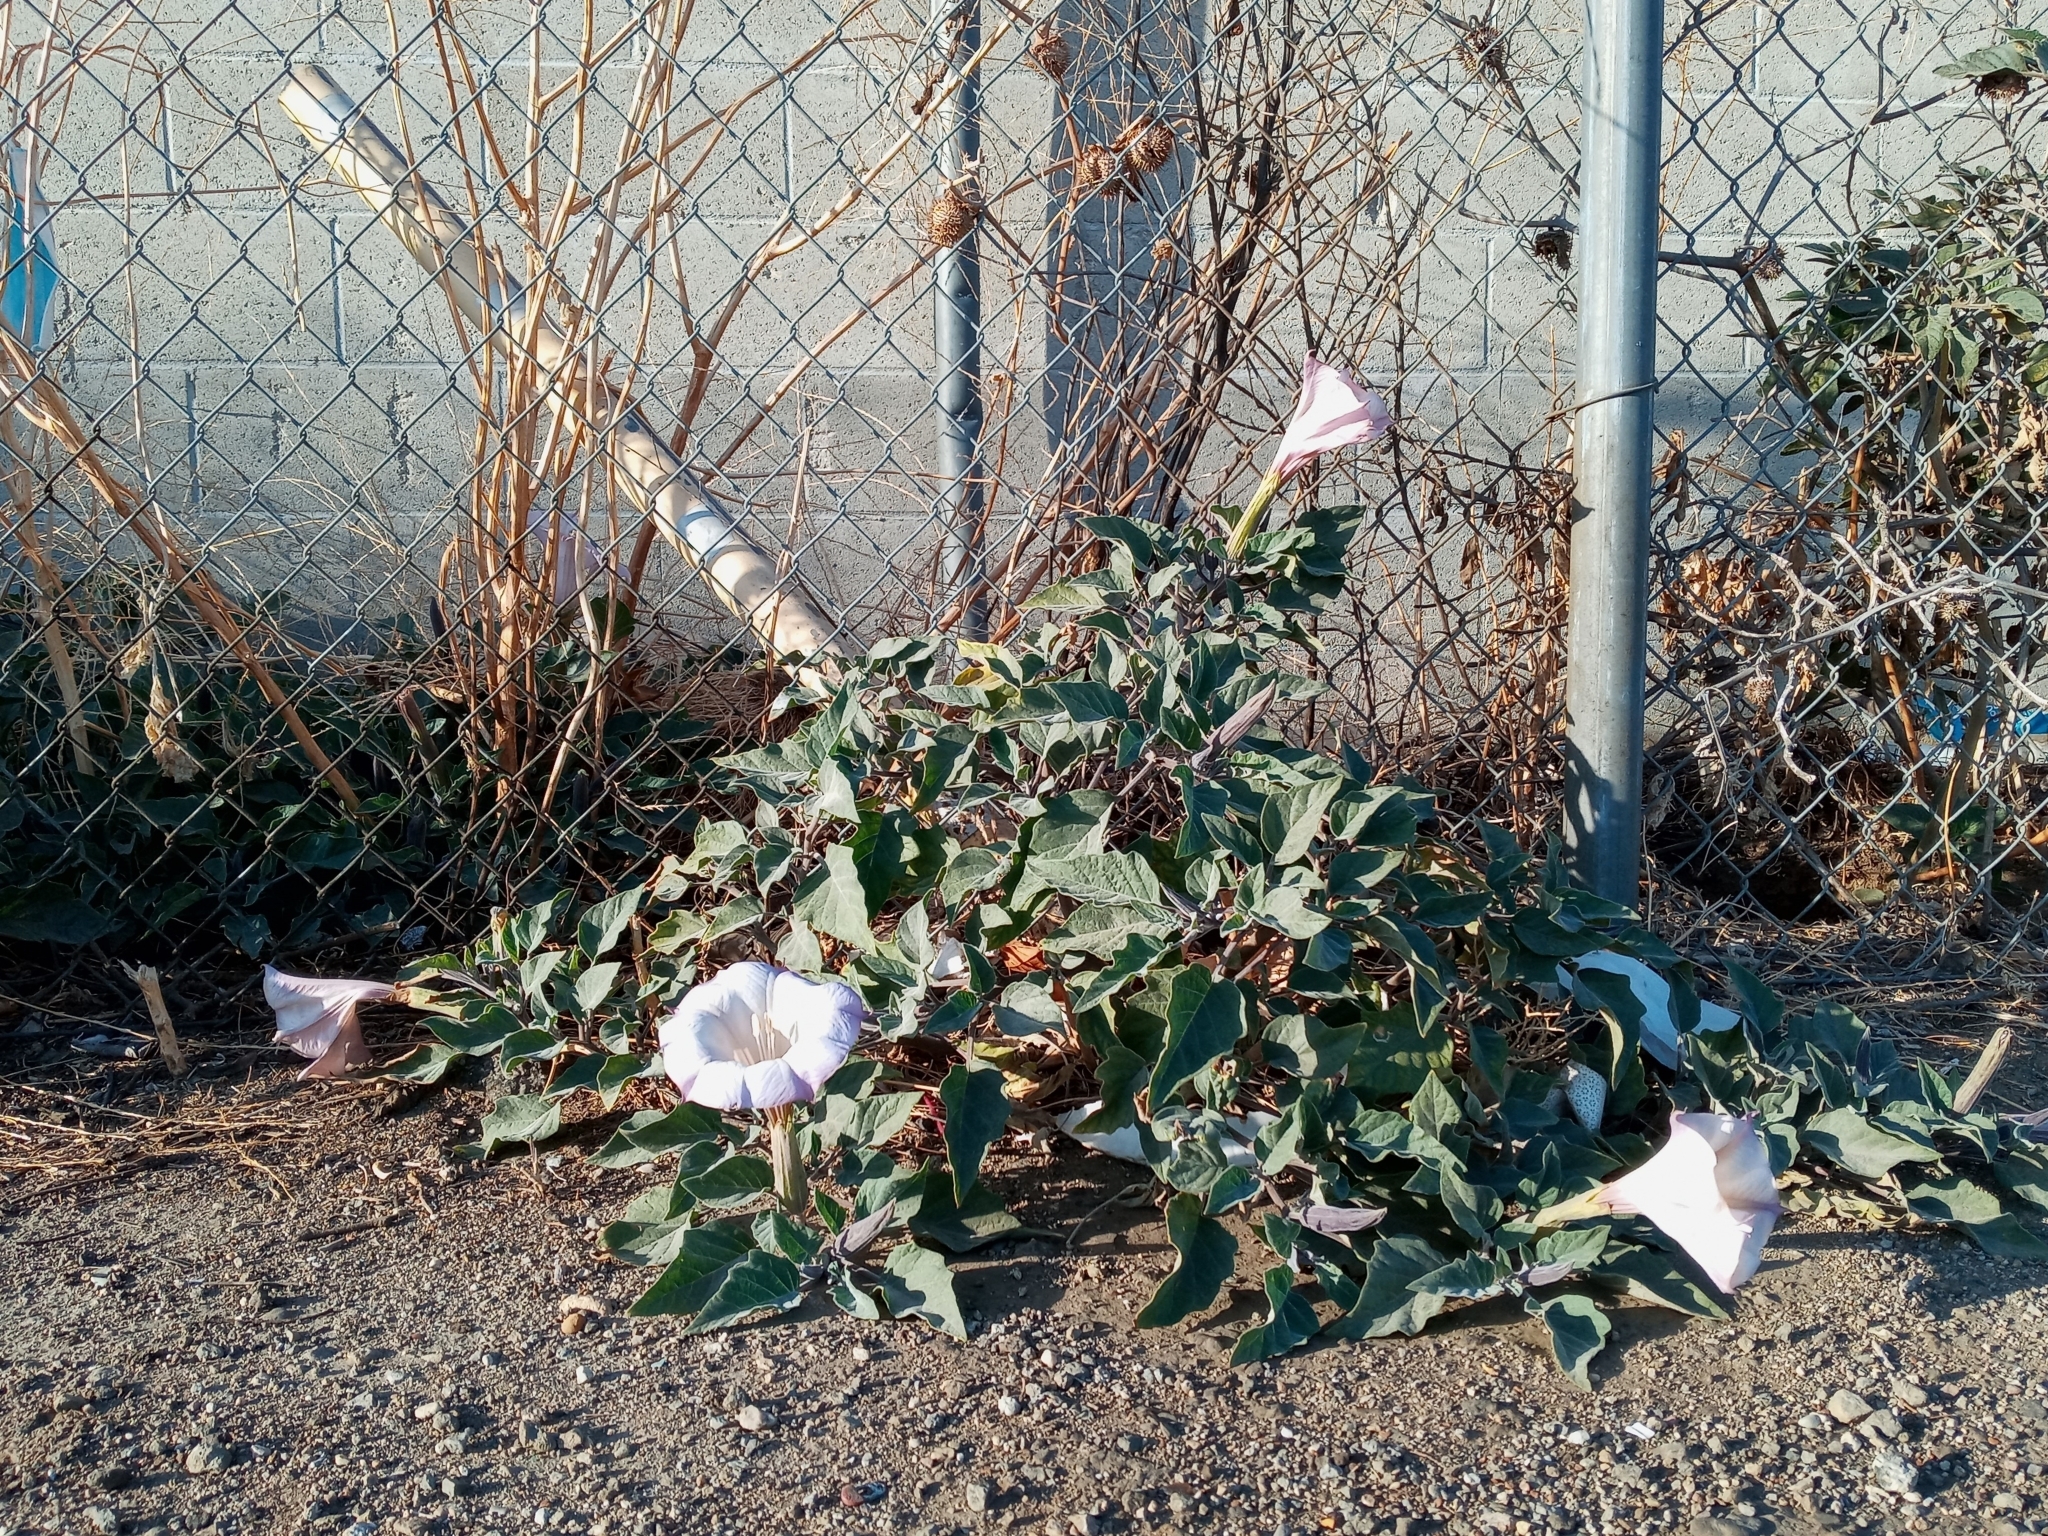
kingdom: Plantae
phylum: Tracheophyta
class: Magnoliopsida
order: Solanales
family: Solanaceae
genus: Datura
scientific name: Datura wrightii
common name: Sacred thorn-apple
